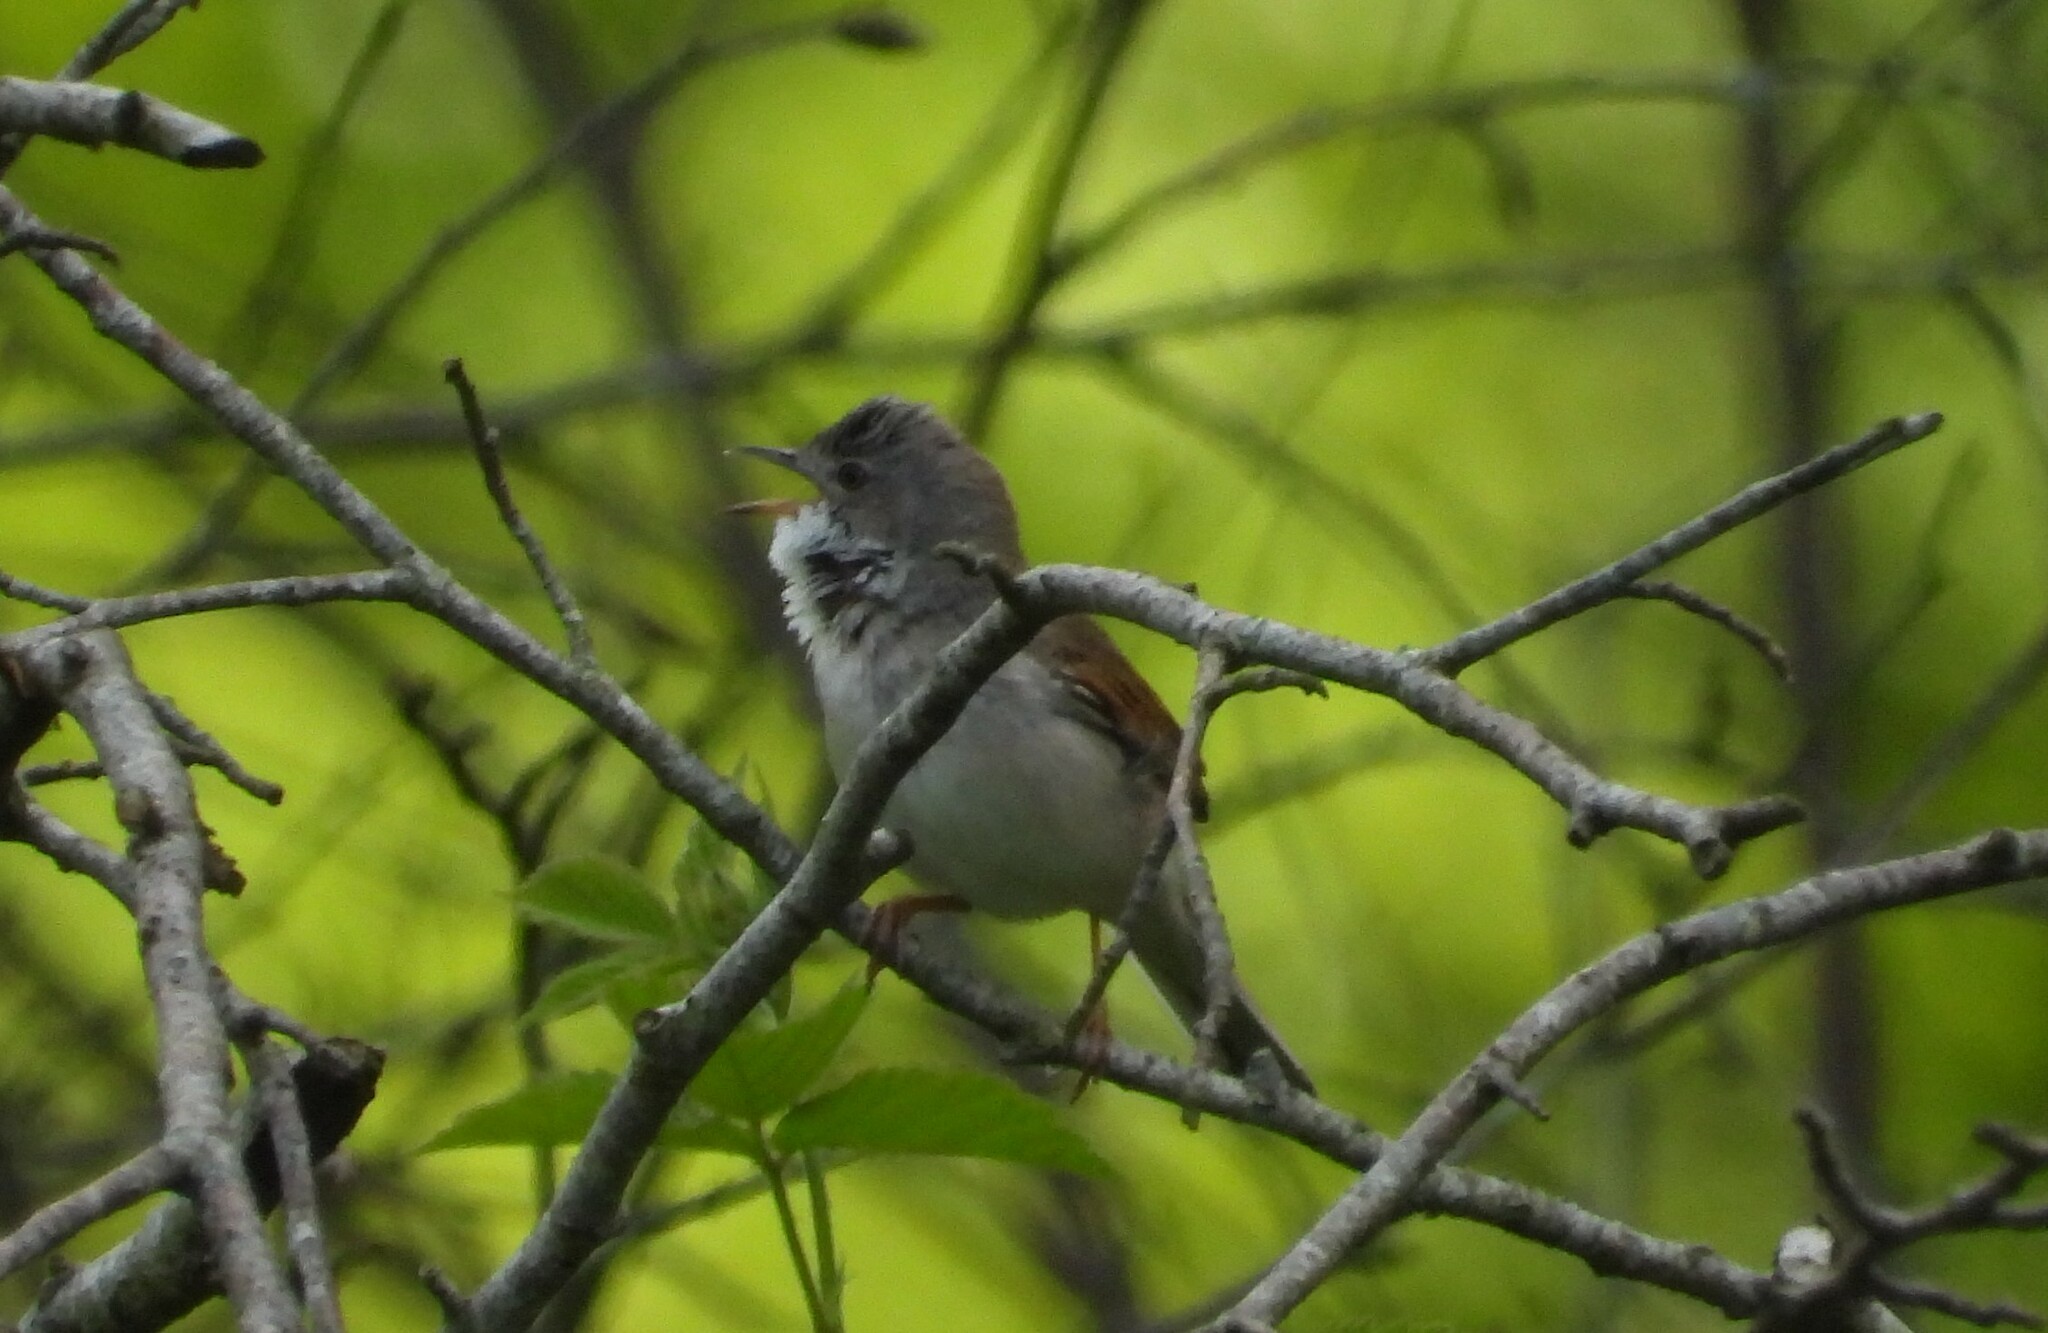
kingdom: Animalia
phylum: Chordata
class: Aves
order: Passeriformes
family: Sylviidae
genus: Sylvia
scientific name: Sylvia communis
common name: Common whitethroat
